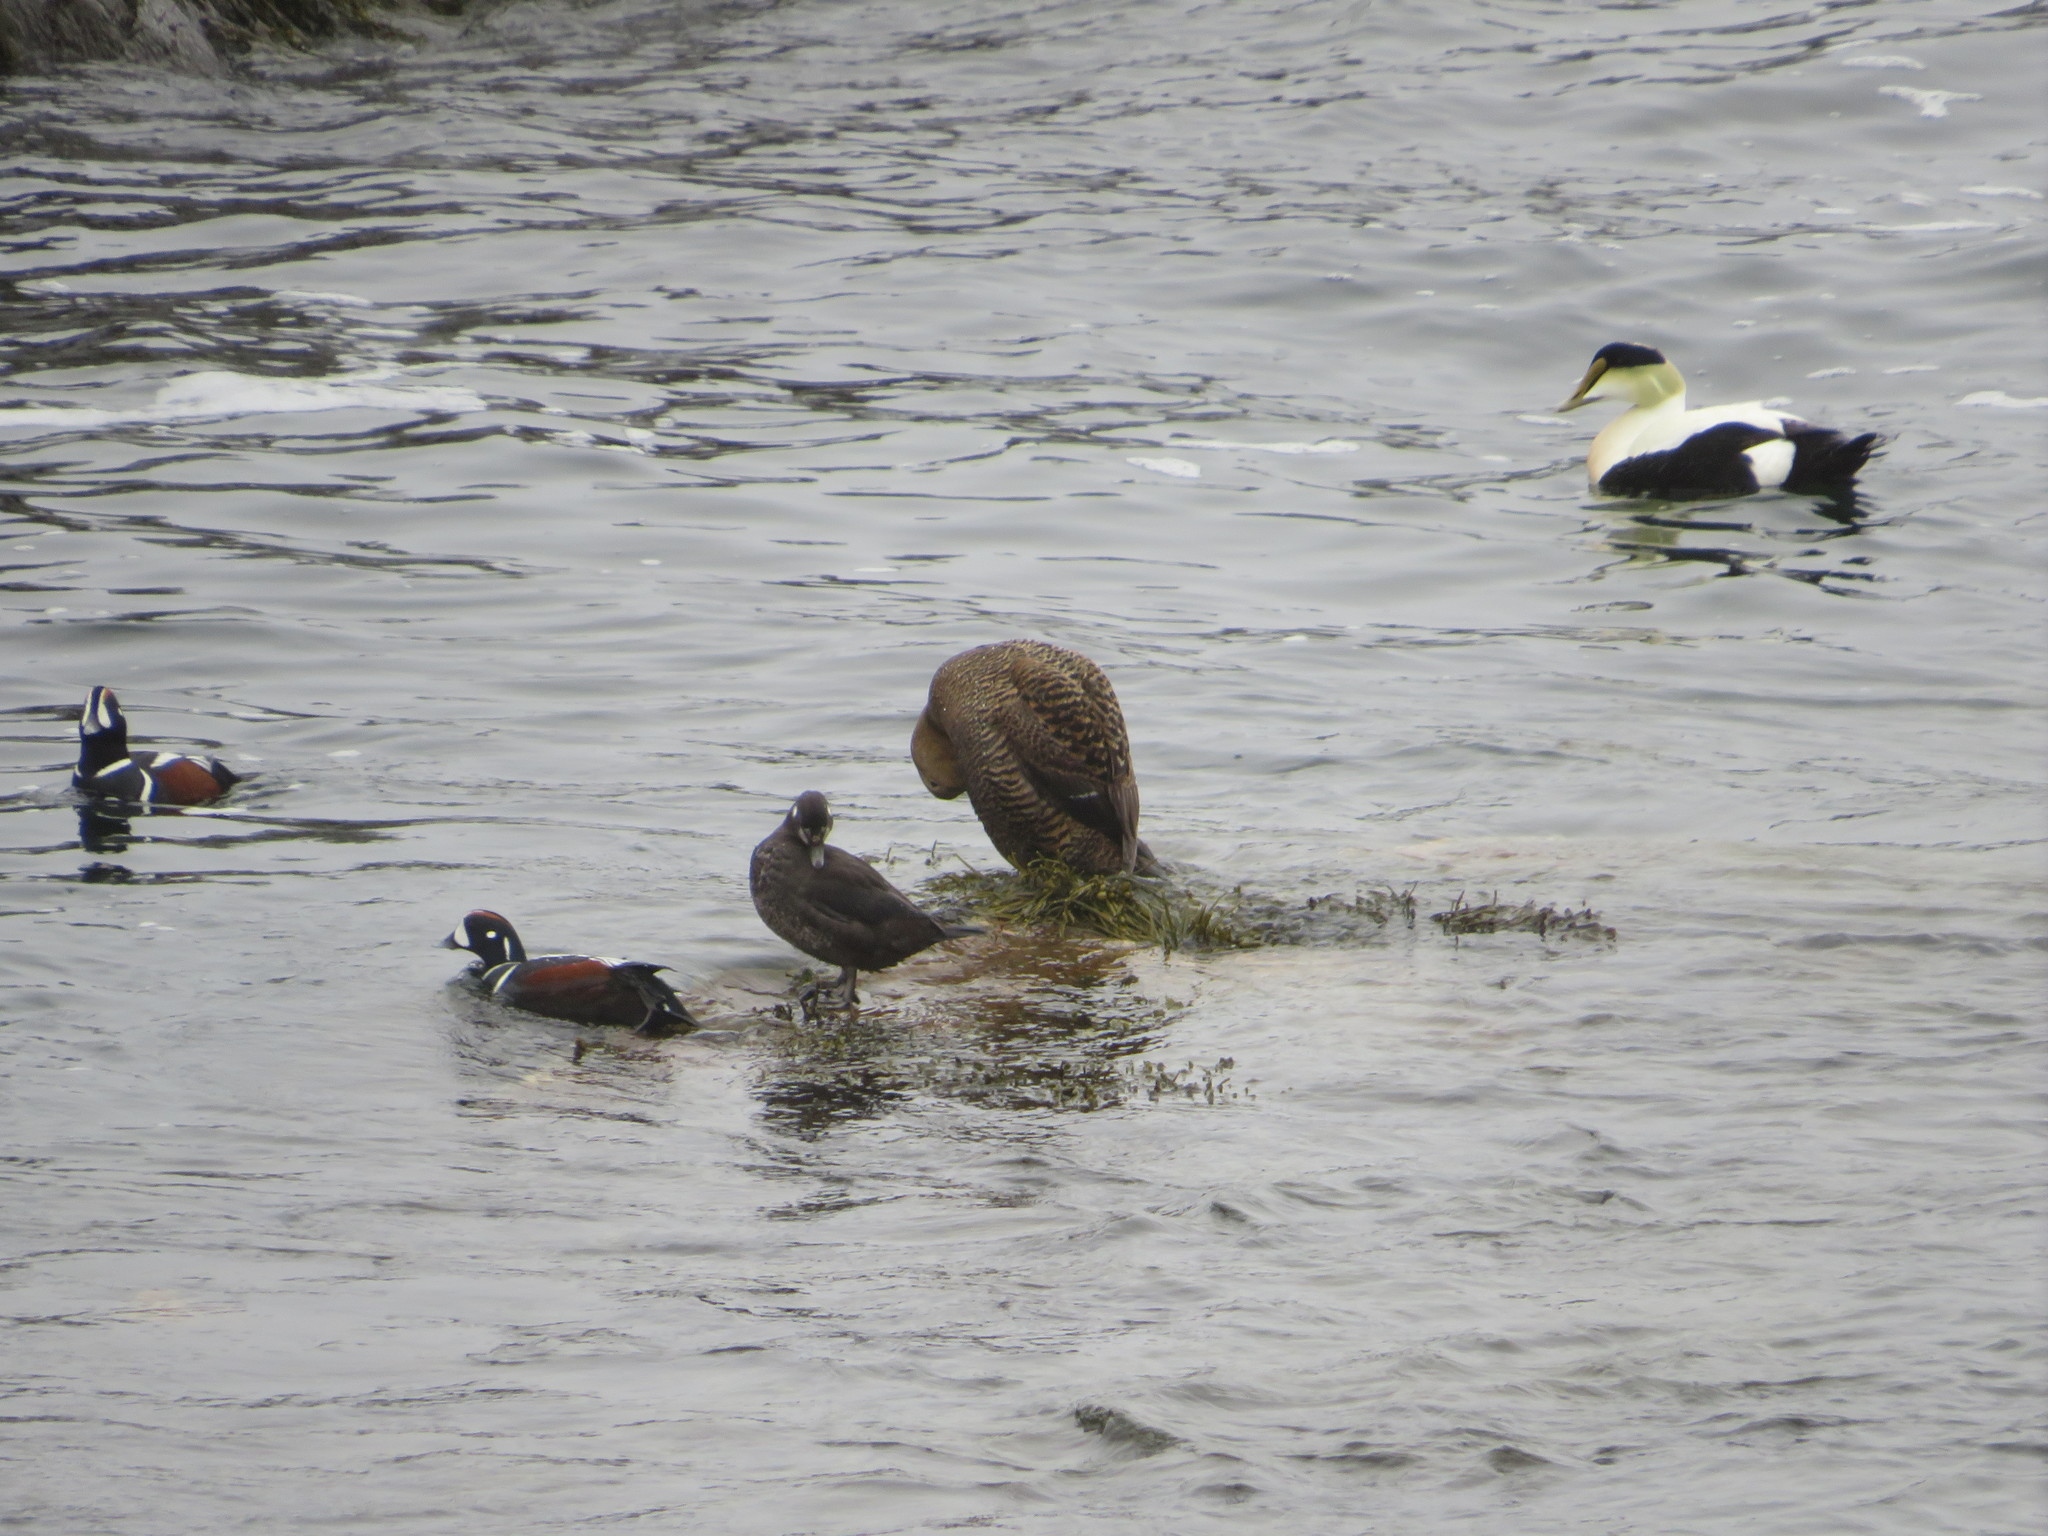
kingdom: Animalia
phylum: Chordata
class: Aves
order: Anseriformes
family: Anatidae
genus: Somateria
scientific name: Somateria mollissima
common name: Common eider
